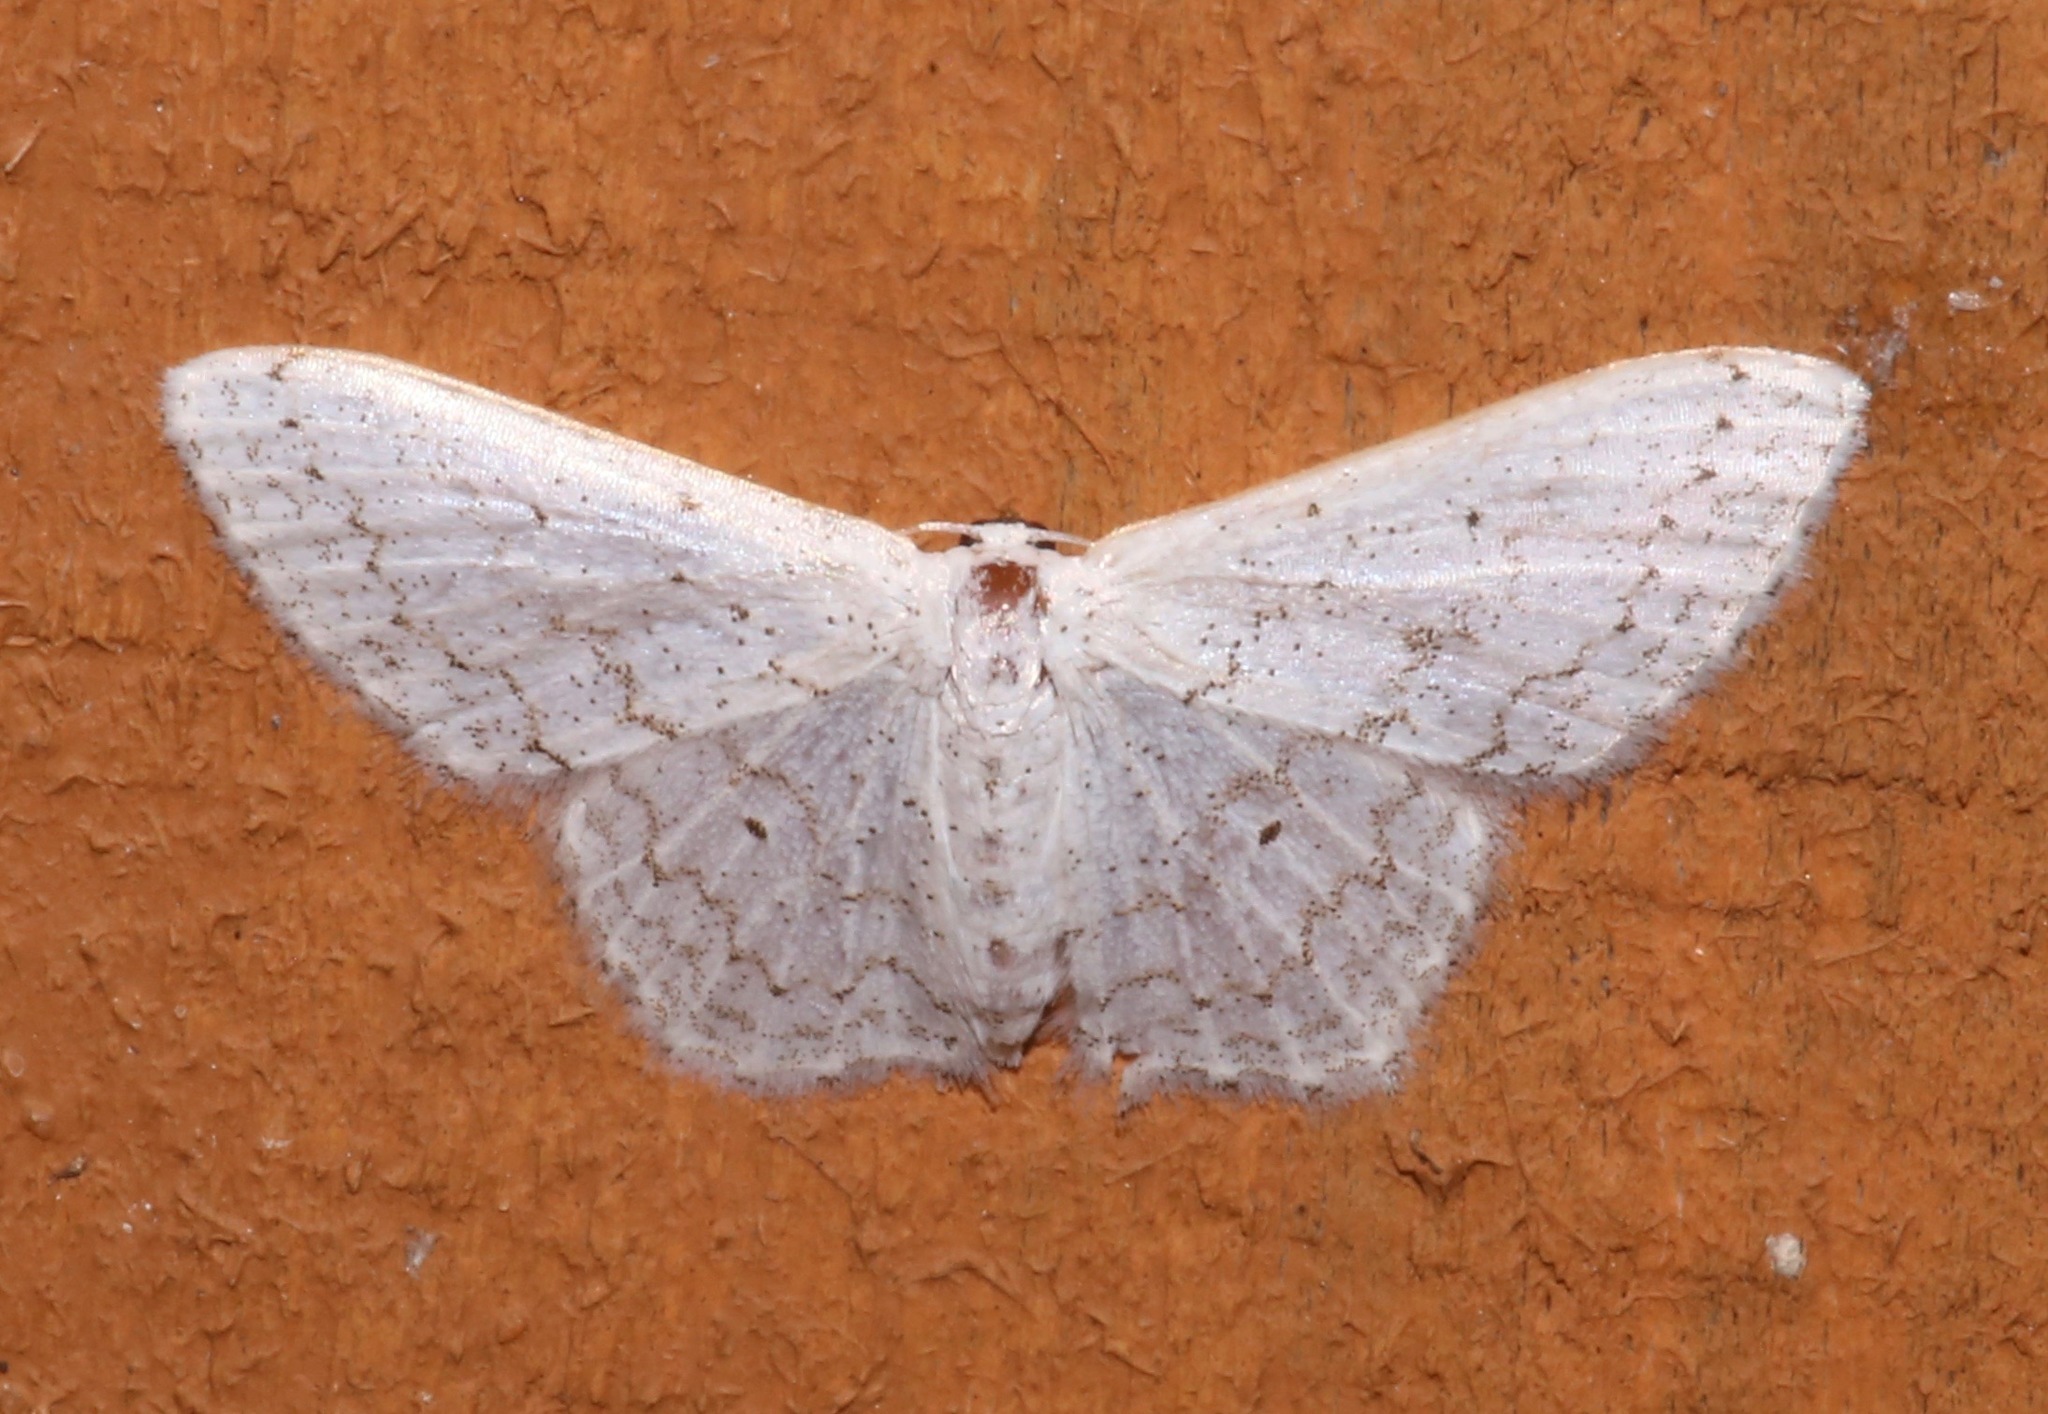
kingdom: Animalia
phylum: Arthropoda
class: Insecta
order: Lepidoptera
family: Geometridae
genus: Idaea
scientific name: Idaea tacturata
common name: Dot-lined wave
